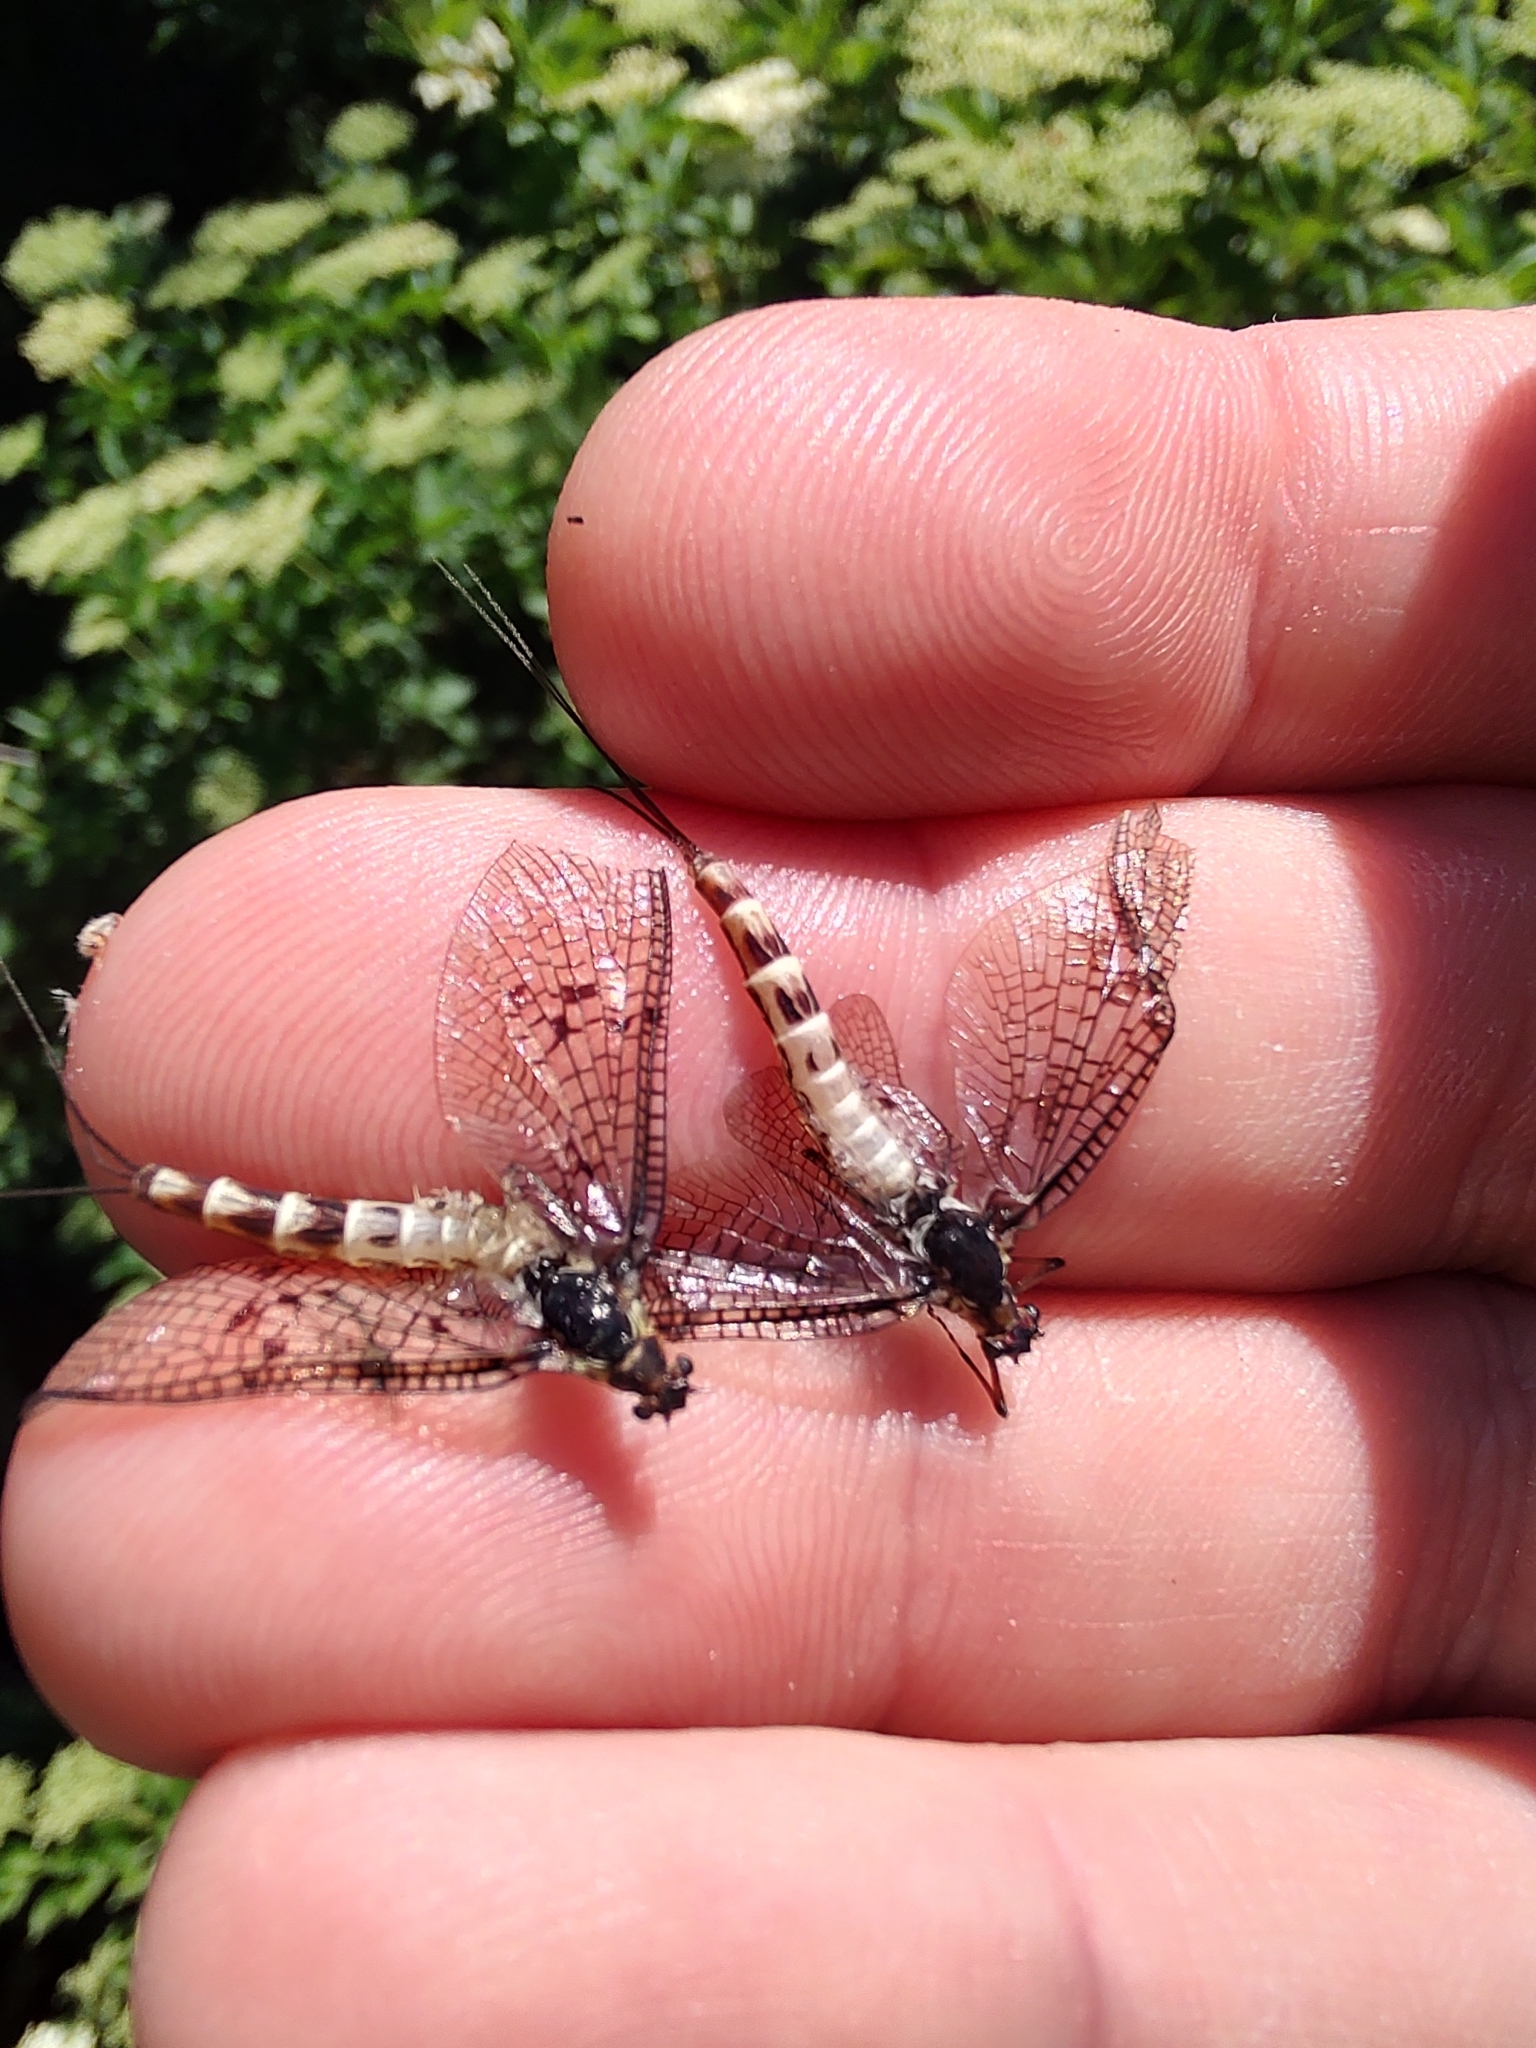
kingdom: Animalia
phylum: Arthropoda
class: Insecta
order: Ephemeroptera
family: Ephemeridae
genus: Ephemera
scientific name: Ephemera danica
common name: Green dun
